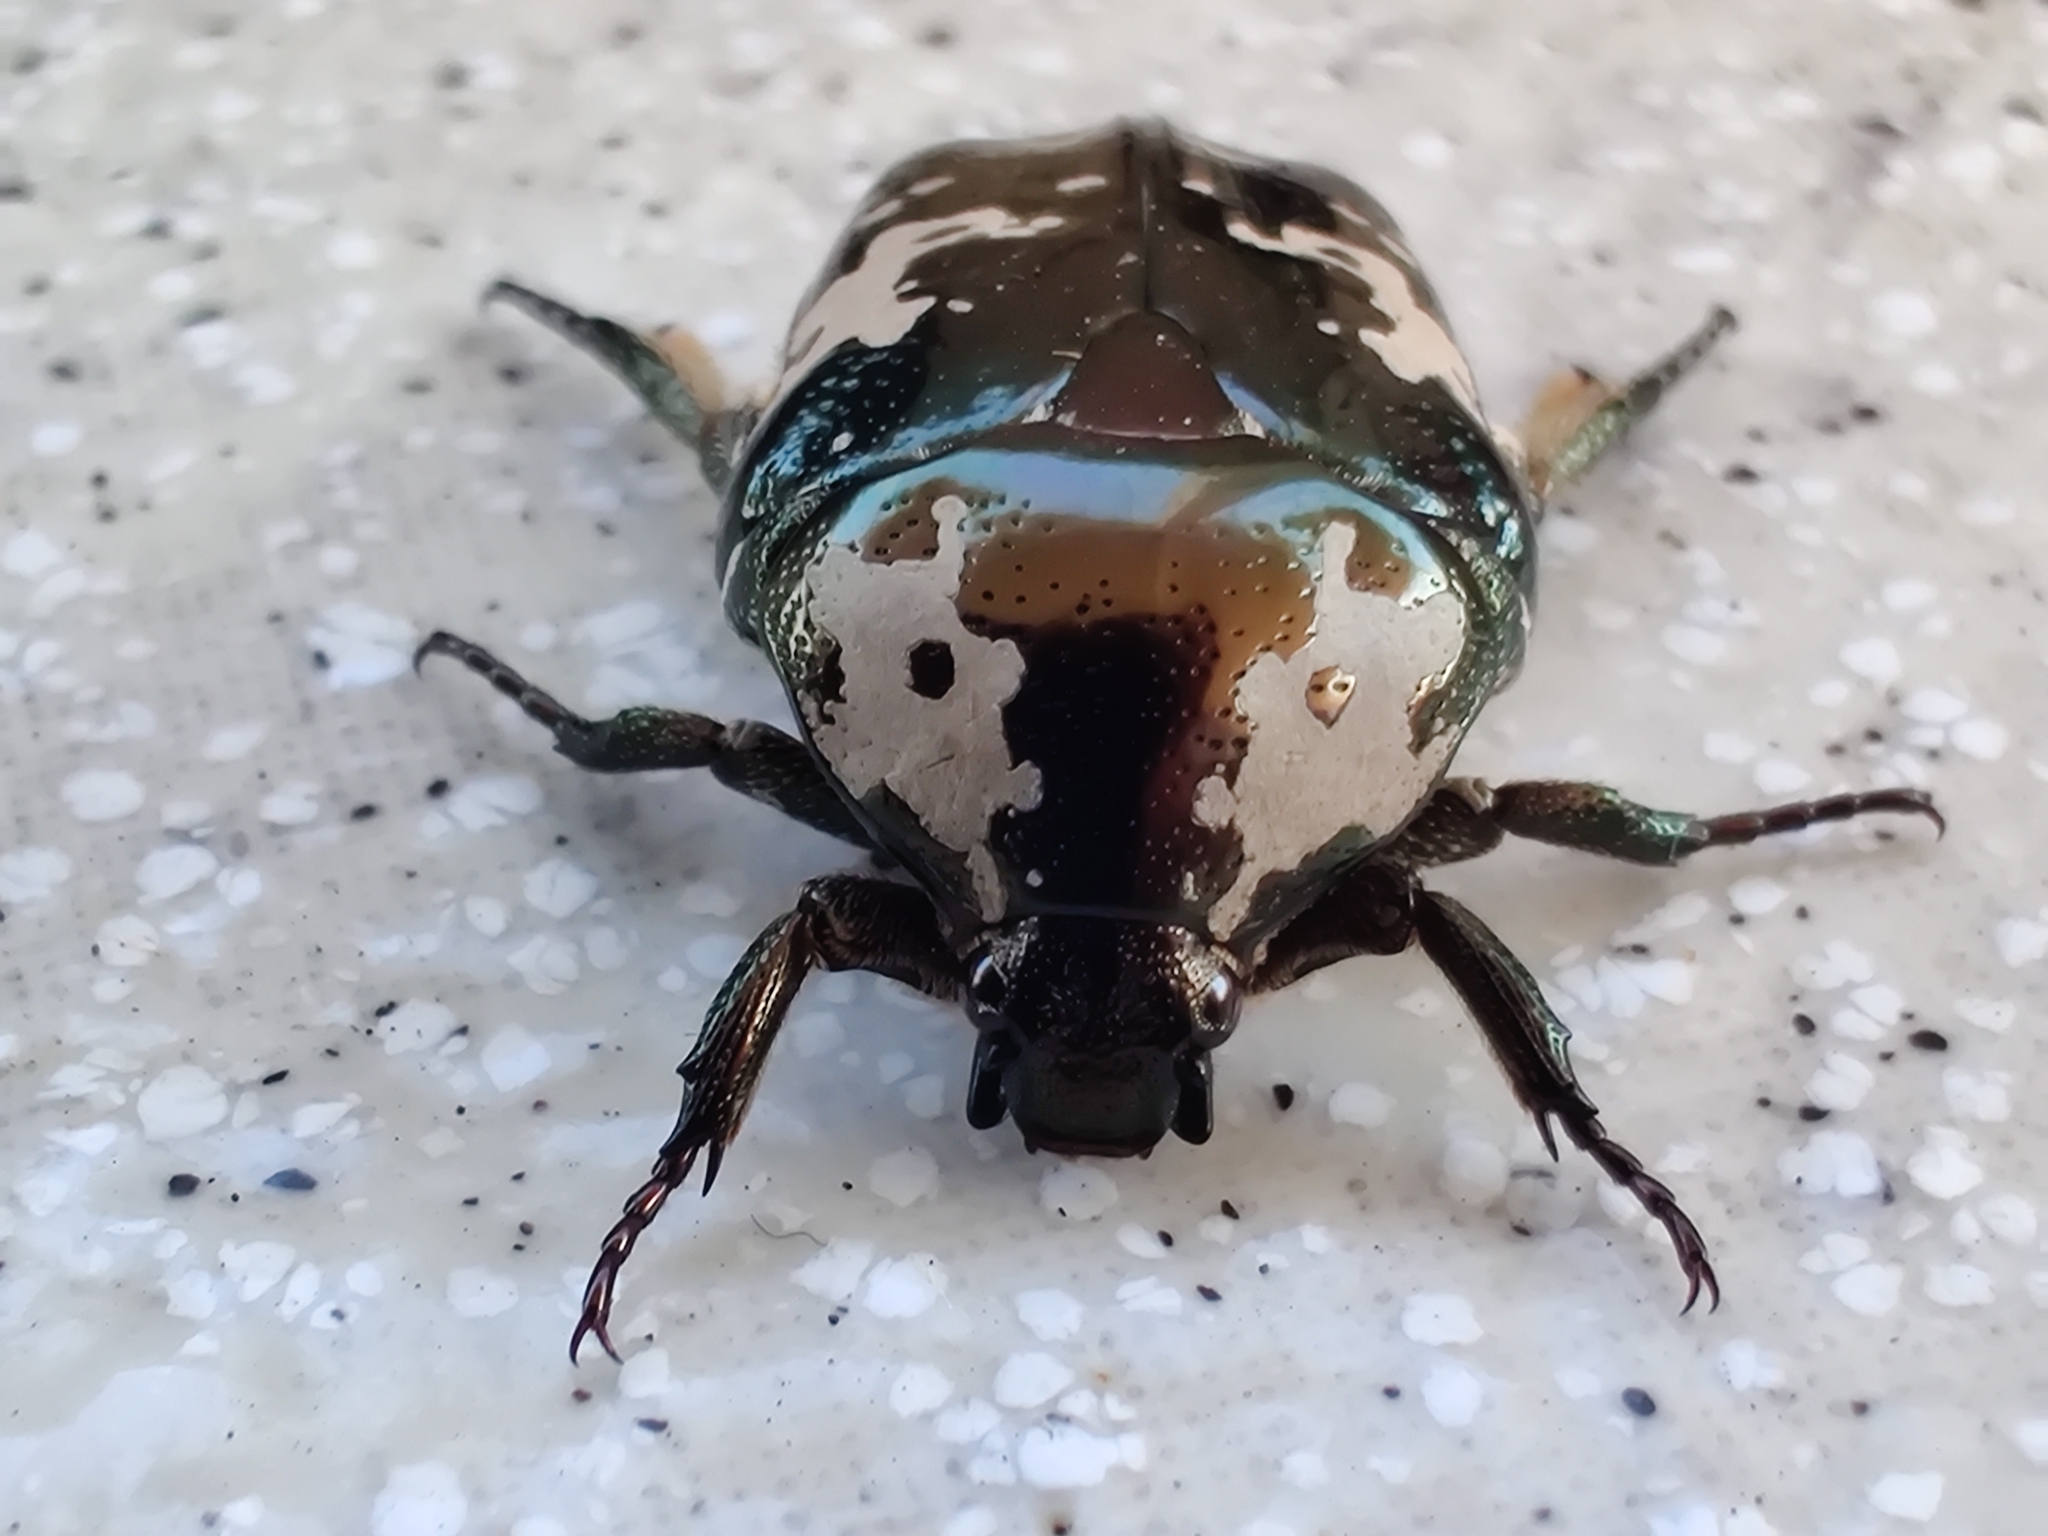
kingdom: Animalia
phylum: Arthropoda
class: Insecta
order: Coleoptera
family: Scarabaeidae
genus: Protaetia
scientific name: Protaetia aurichalcea
